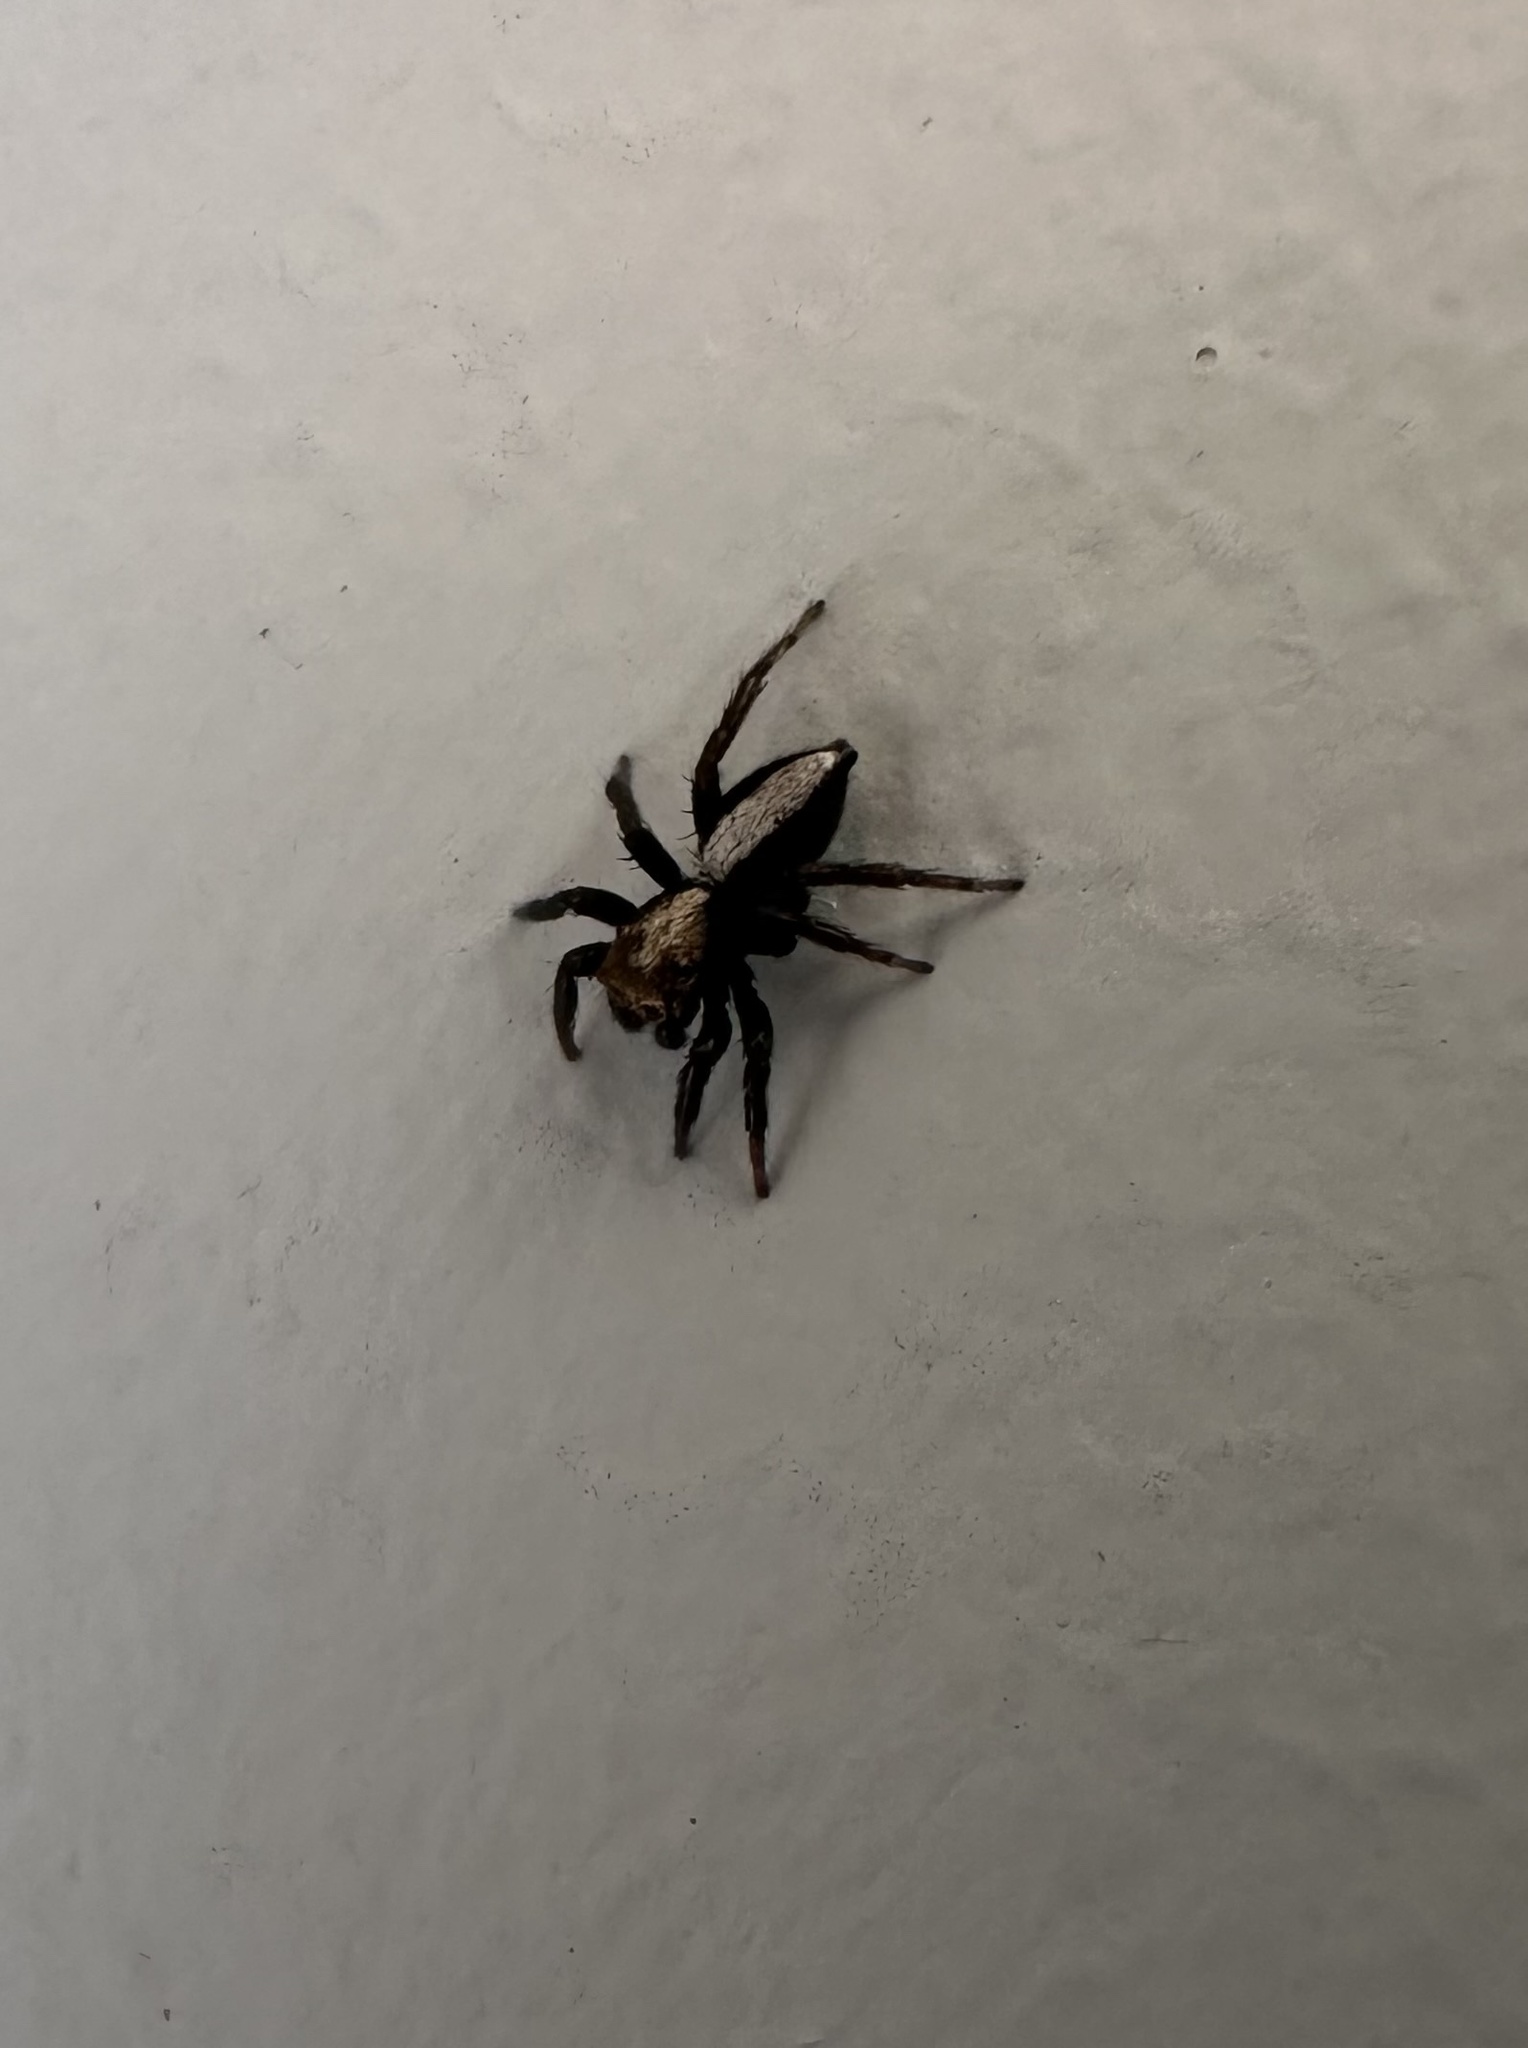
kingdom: Animalia
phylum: Arthropoda
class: Arachnida
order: Araneae
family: Salticidae
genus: Saphrys
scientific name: Saphrys rusticana
